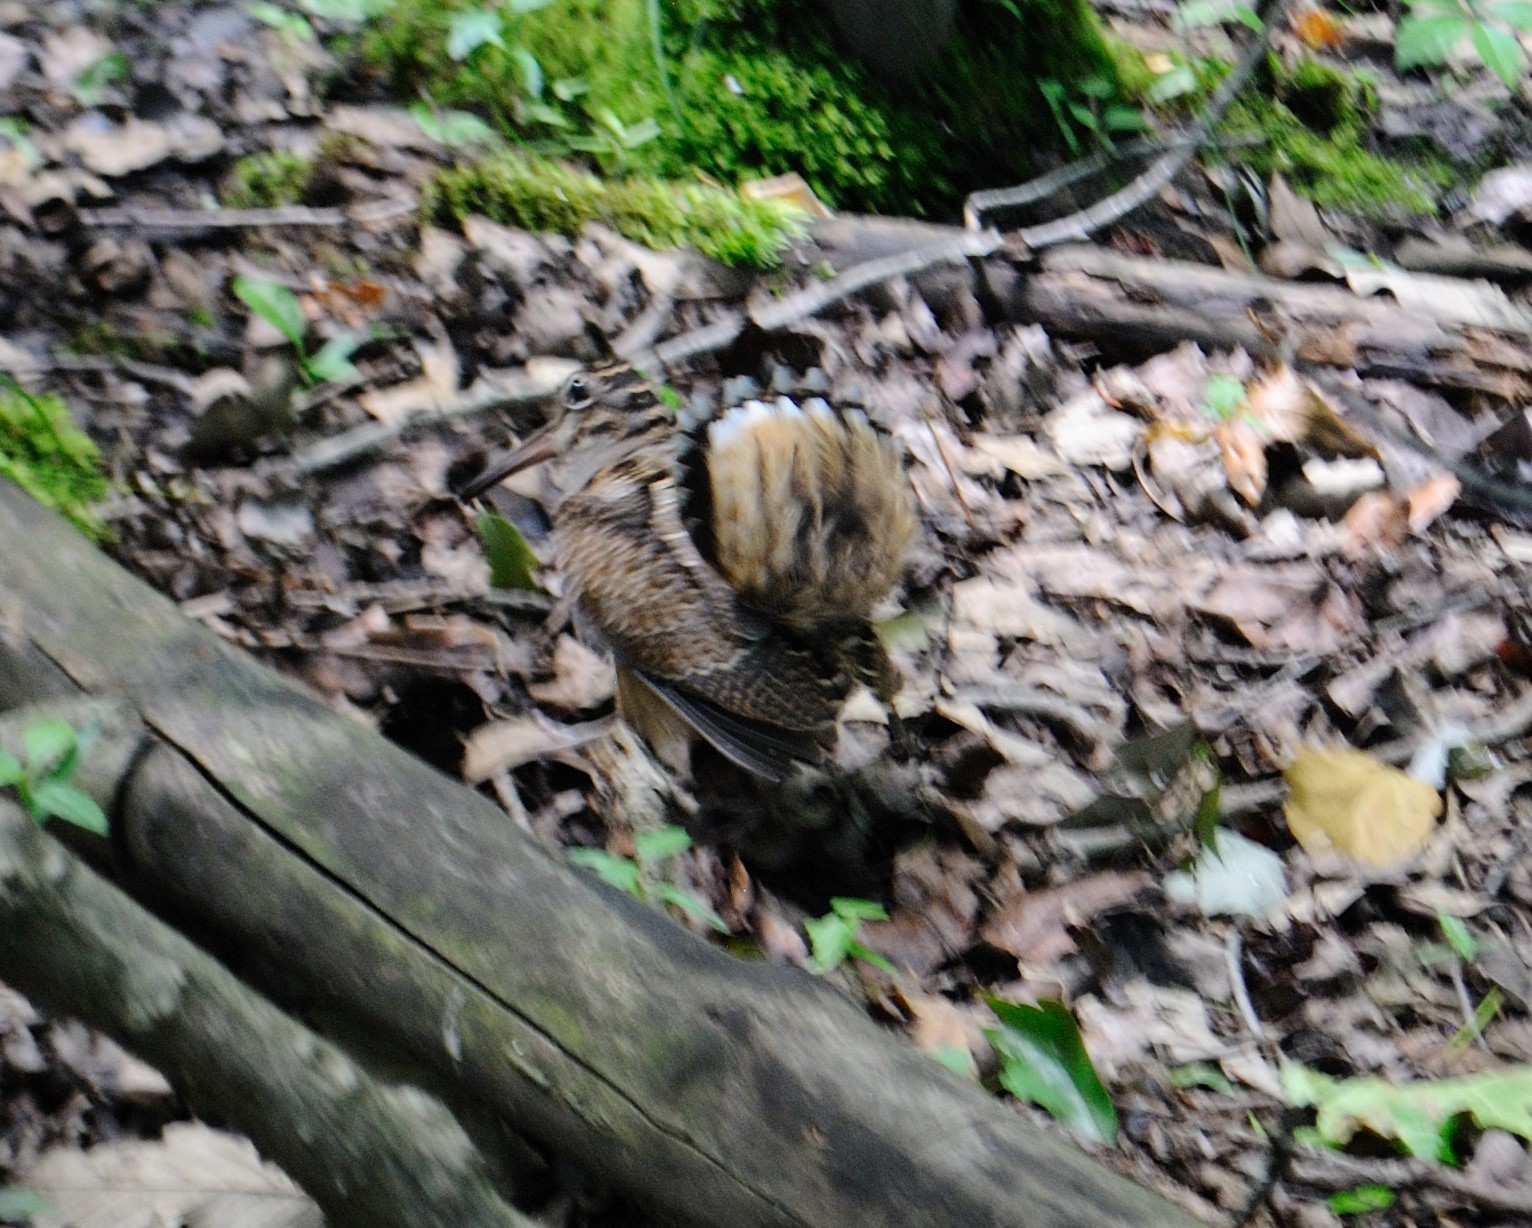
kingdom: Animalia
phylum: Chordata
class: Aves
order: Charadriiformes
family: Scolopacidae
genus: Scolopax
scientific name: Scolopax minor
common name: American woodcock
